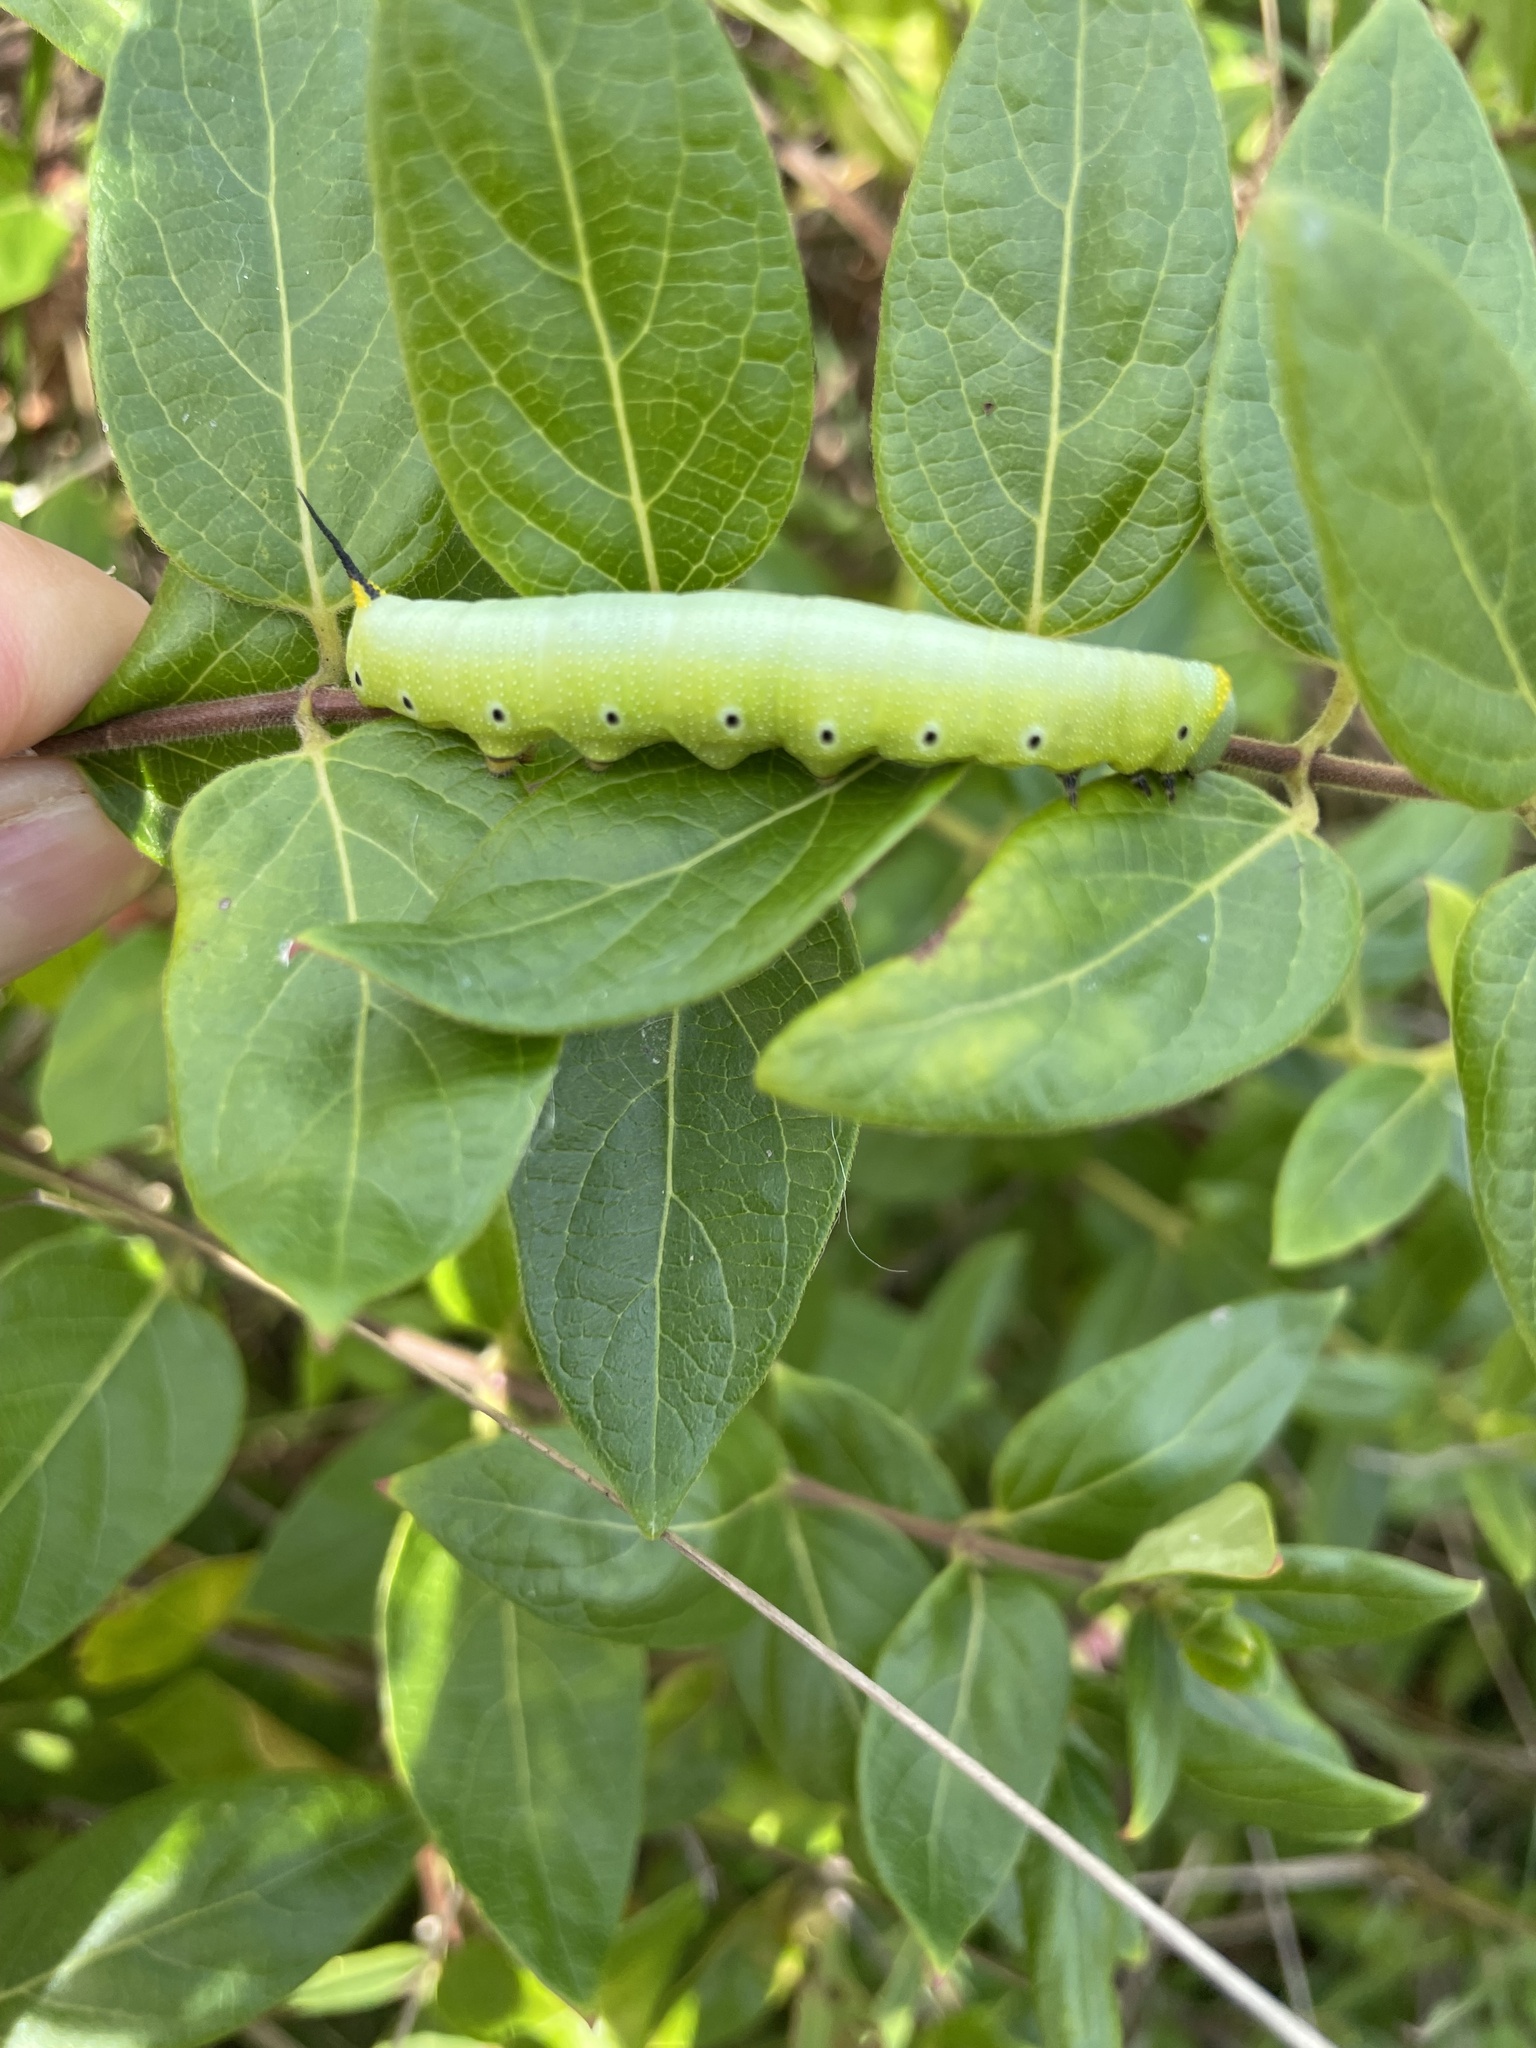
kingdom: Animalia
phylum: Arthropoda
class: Insecta
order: Lepidoptera
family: Sphingidae
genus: Hemaris
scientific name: Hemaris diffinis
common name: Bumblebee moth
